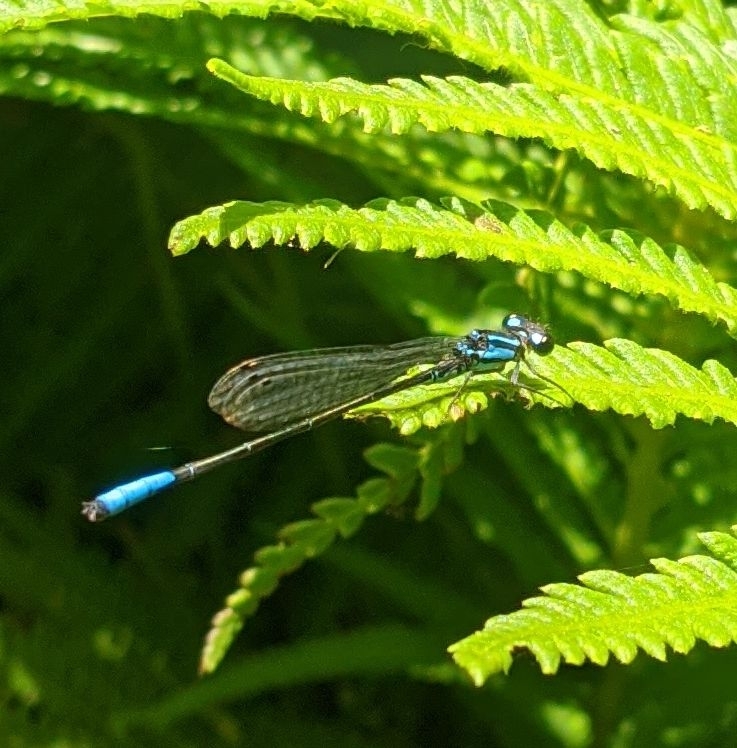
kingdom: Animalia
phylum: Arthropoda
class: Insecta
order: Odonata
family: Coenagrionidae
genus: Mesamphiagrion
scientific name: Mesamphiagrion laterale
